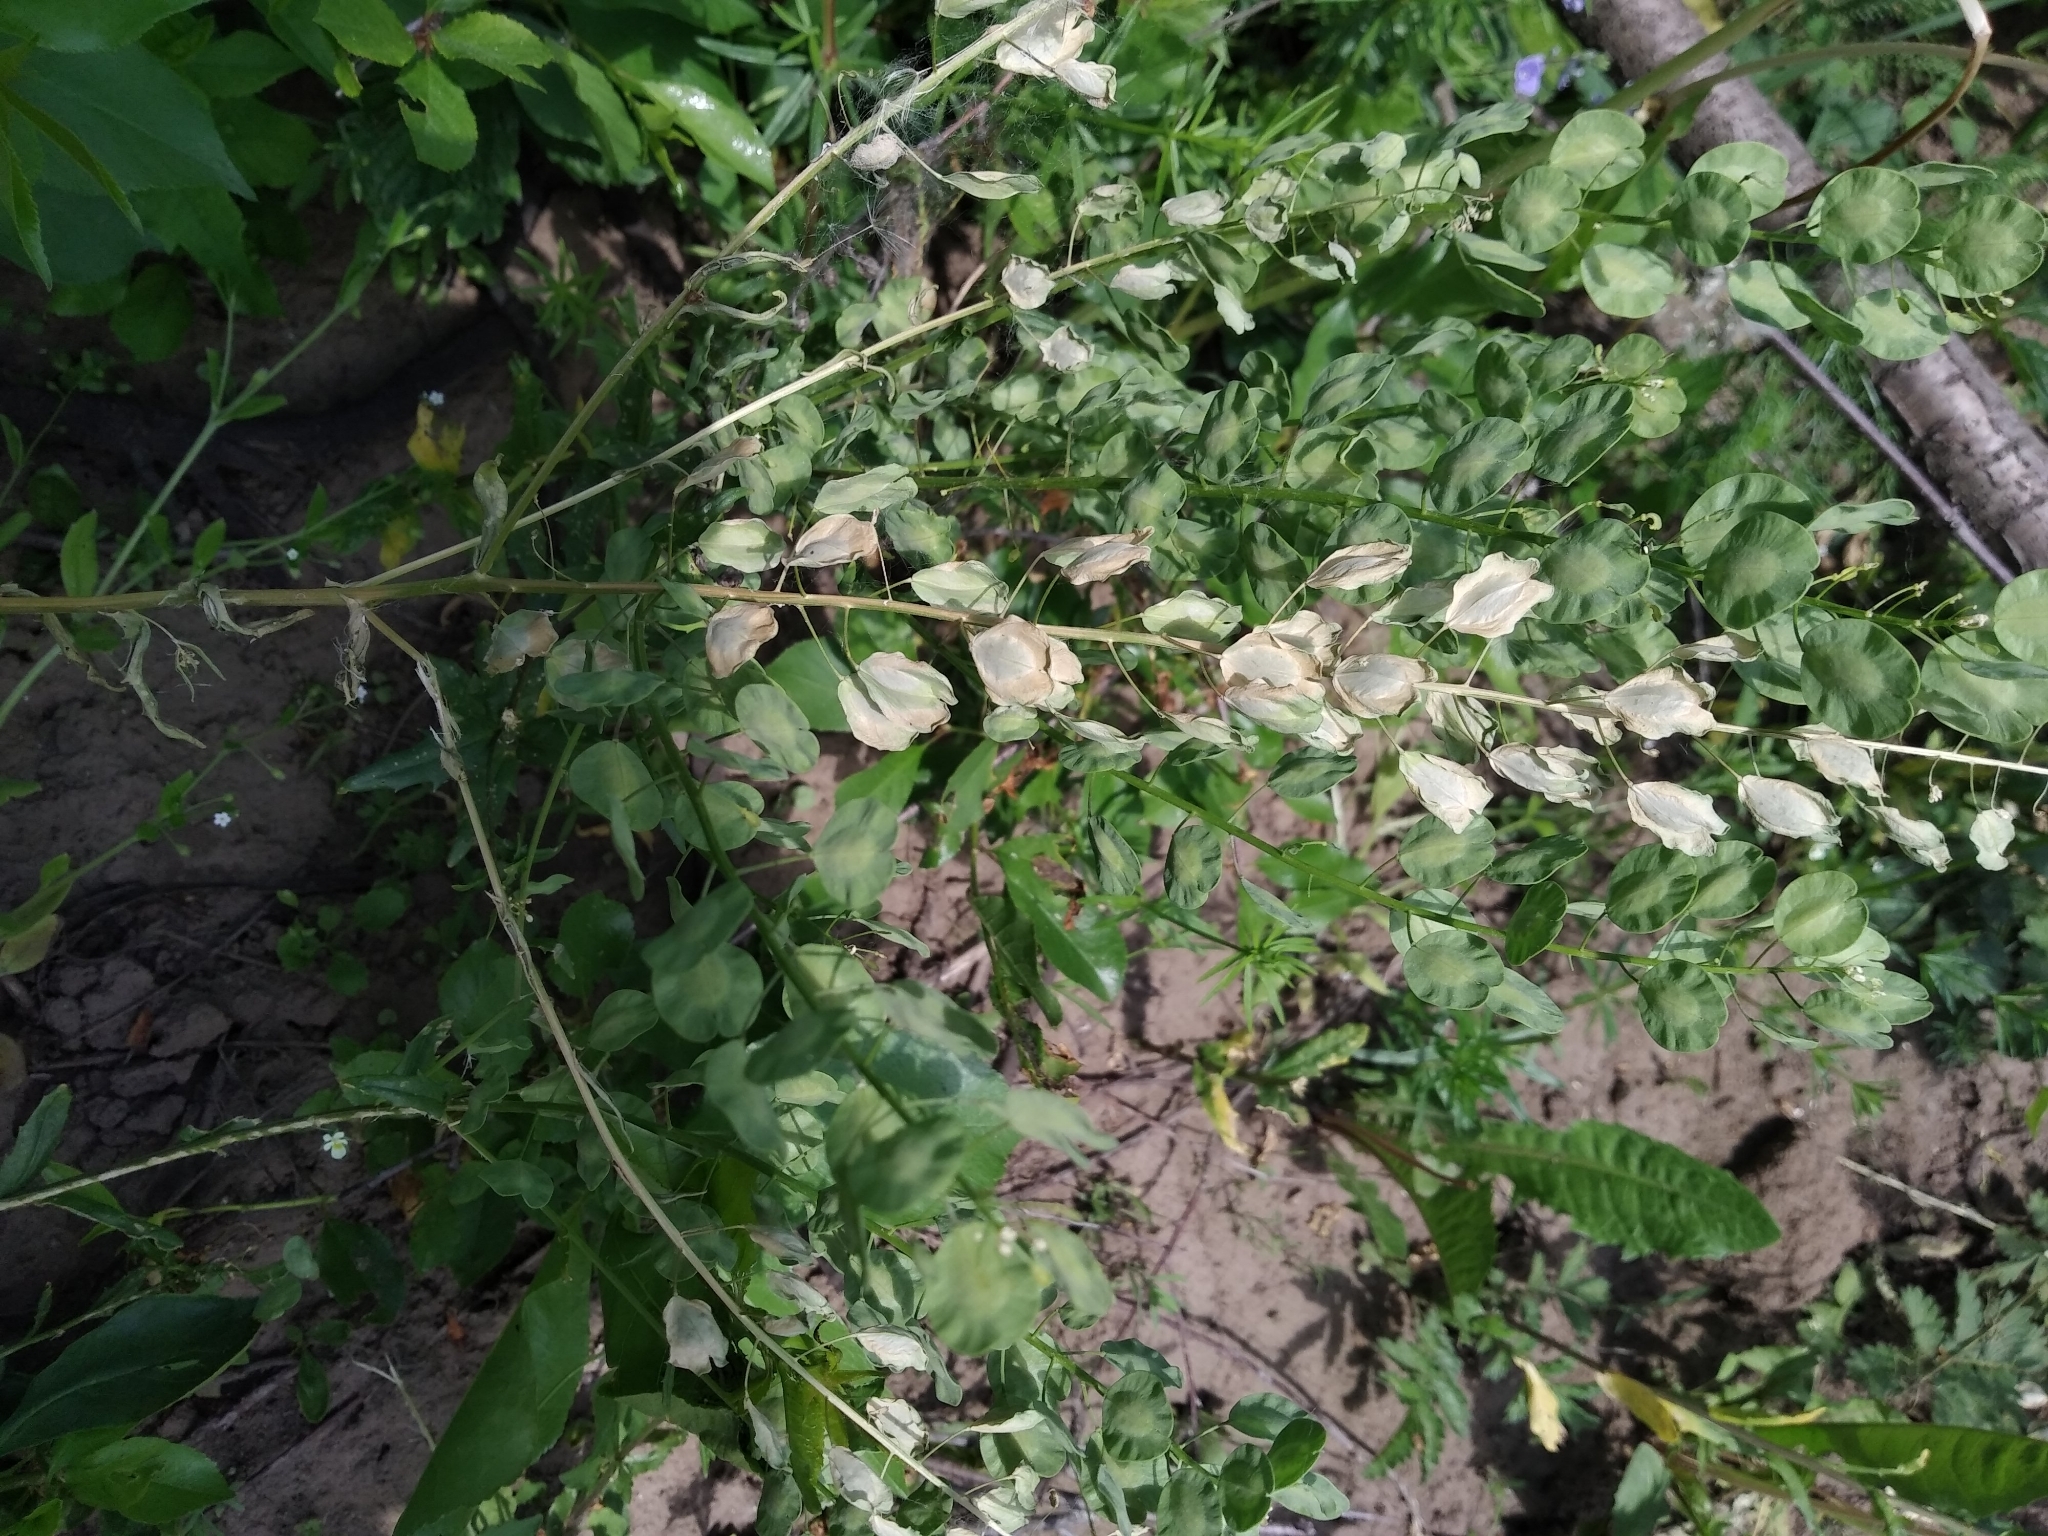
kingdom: Plantae
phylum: Tracheophyta
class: Magnoliopsida
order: Brassicales
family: Brassicaceae
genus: Thlaspi
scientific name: Thlaspi arvense
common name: Field pennycress
